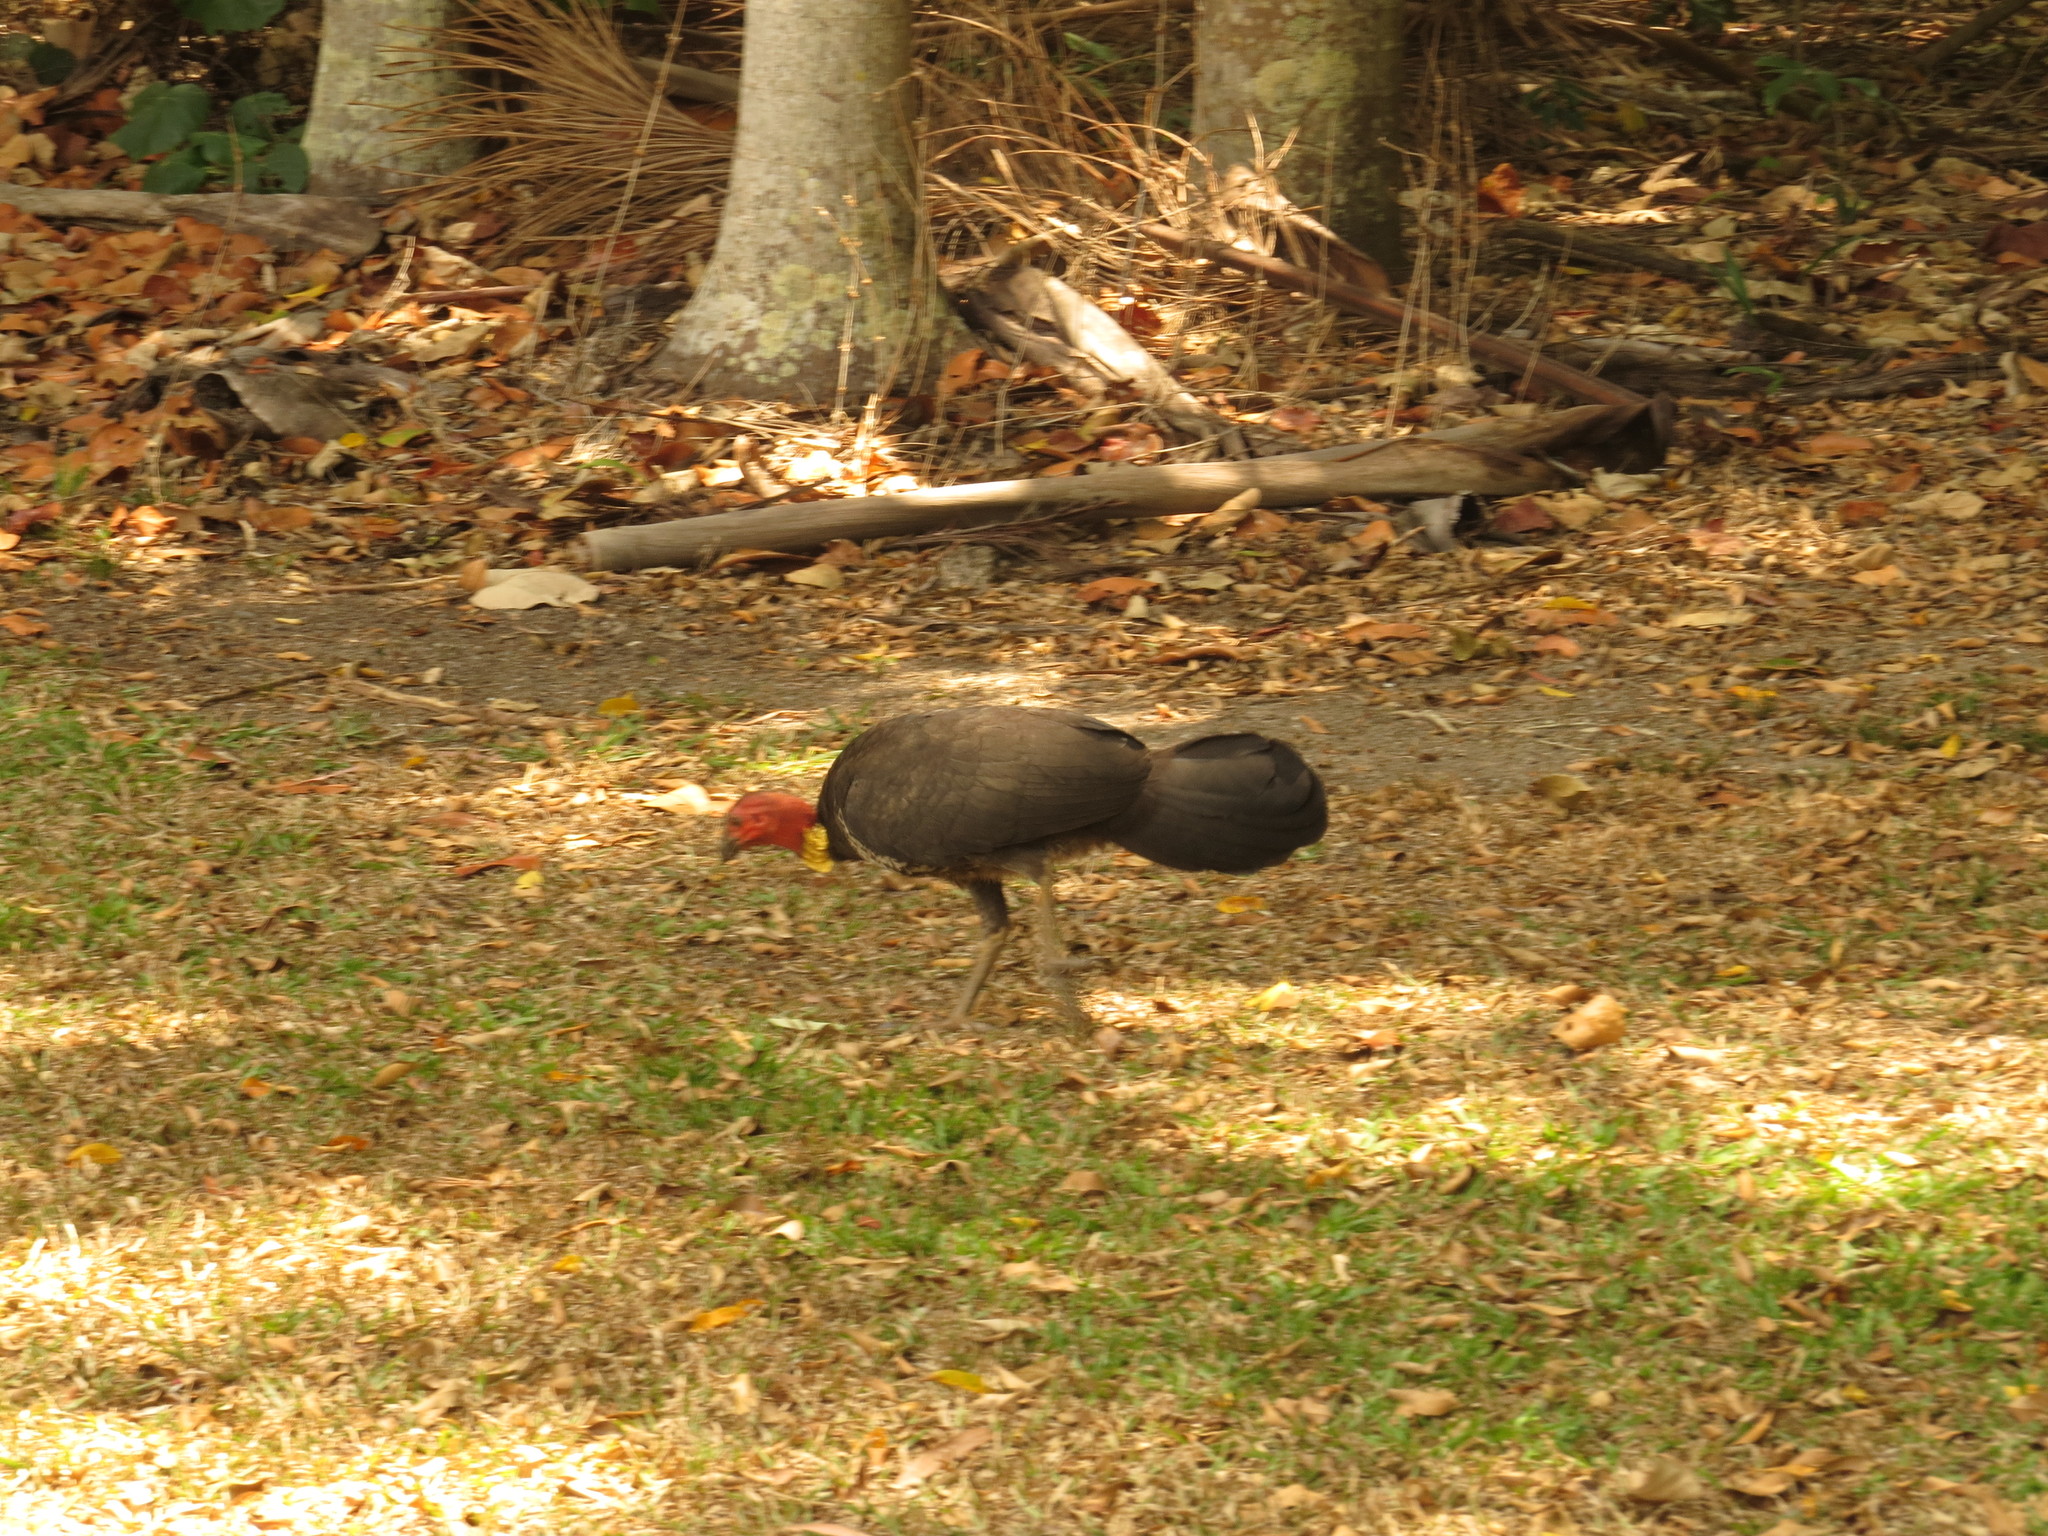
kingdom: Animalia
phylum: Chordata
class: Aves
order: Galliformes
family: Megapodiidae
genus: Alectura
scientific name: Alectura lathami
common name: Australian brushturkey
